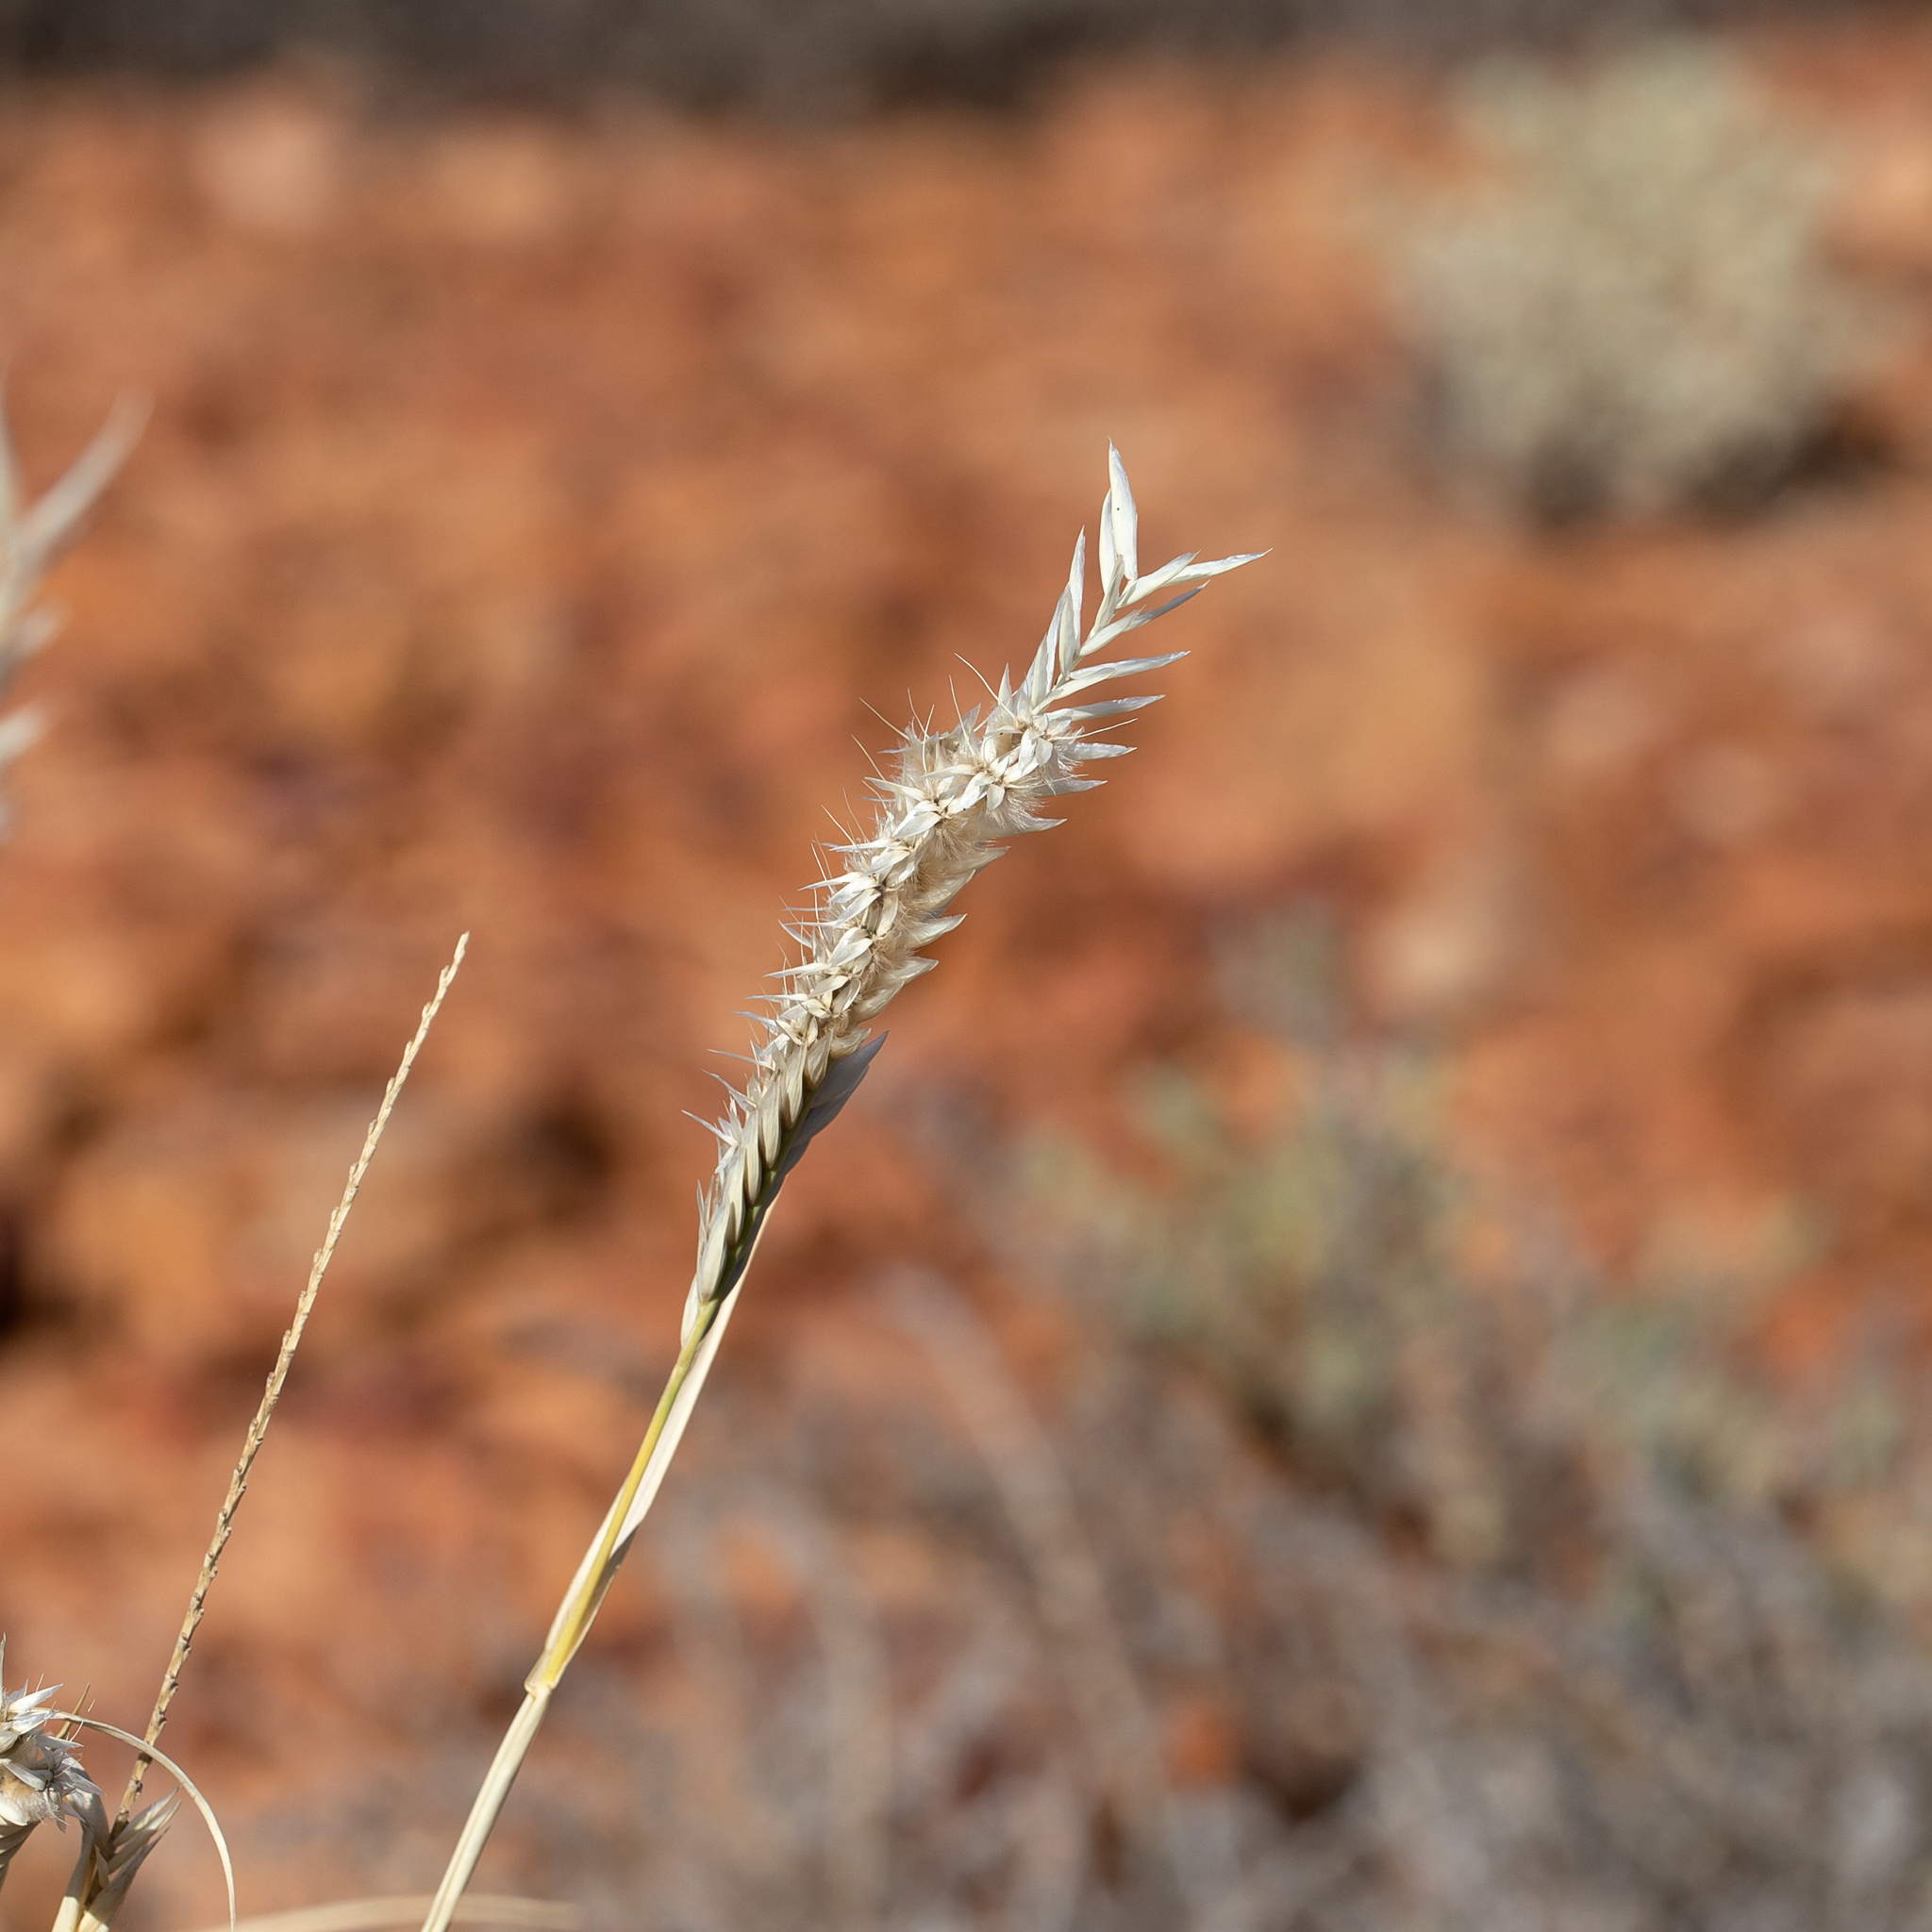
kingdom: Plantae
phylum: Tracheophyta
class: Liliopsida
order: Poales
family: Poaceae
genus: Astrebla
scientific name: Astrebla pectinata
